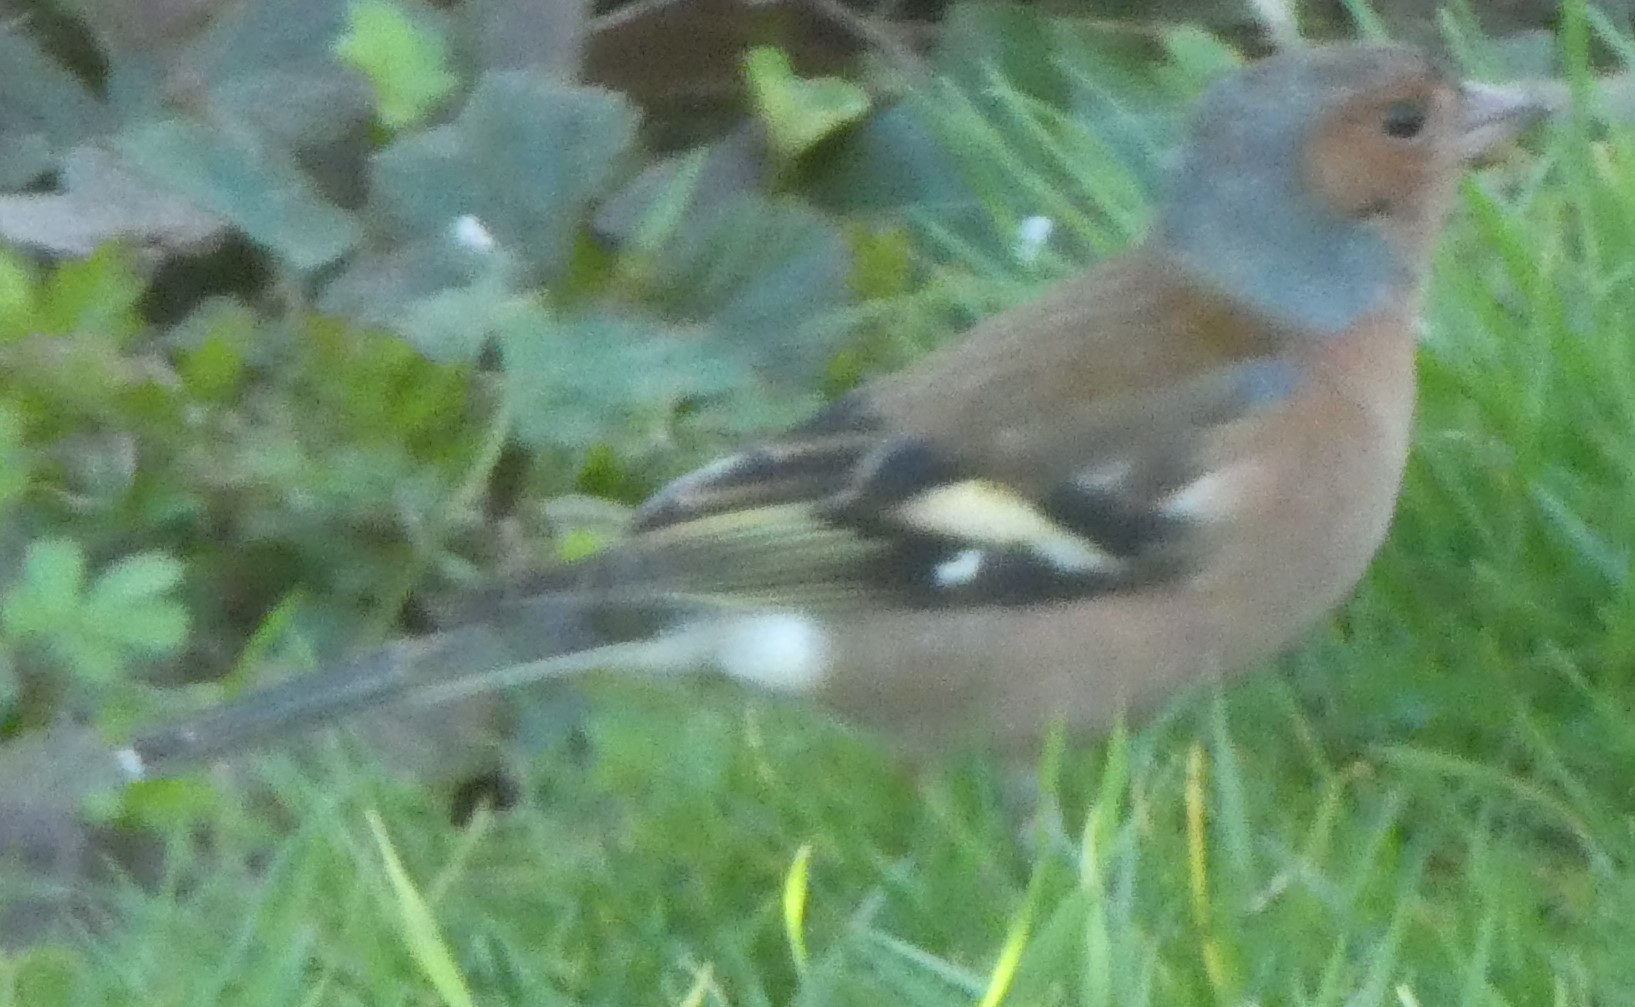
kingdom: Animalia
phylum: Chordata
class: Aves
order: Passeriformes
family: Fringillidae
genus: Fringilla
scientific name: Fringilla coelebs
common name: Common chaffinch
